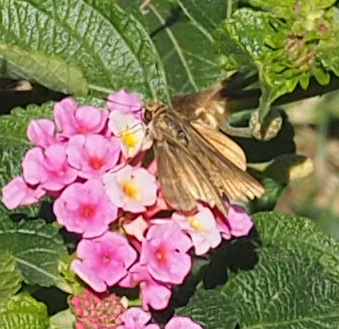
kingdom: Animalia
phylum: Arthropoda
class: Insecta
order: Lepidoptera
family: Hesperiidae
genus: Panoquina
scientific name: Panoquina ocola
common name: Ocola skipper
